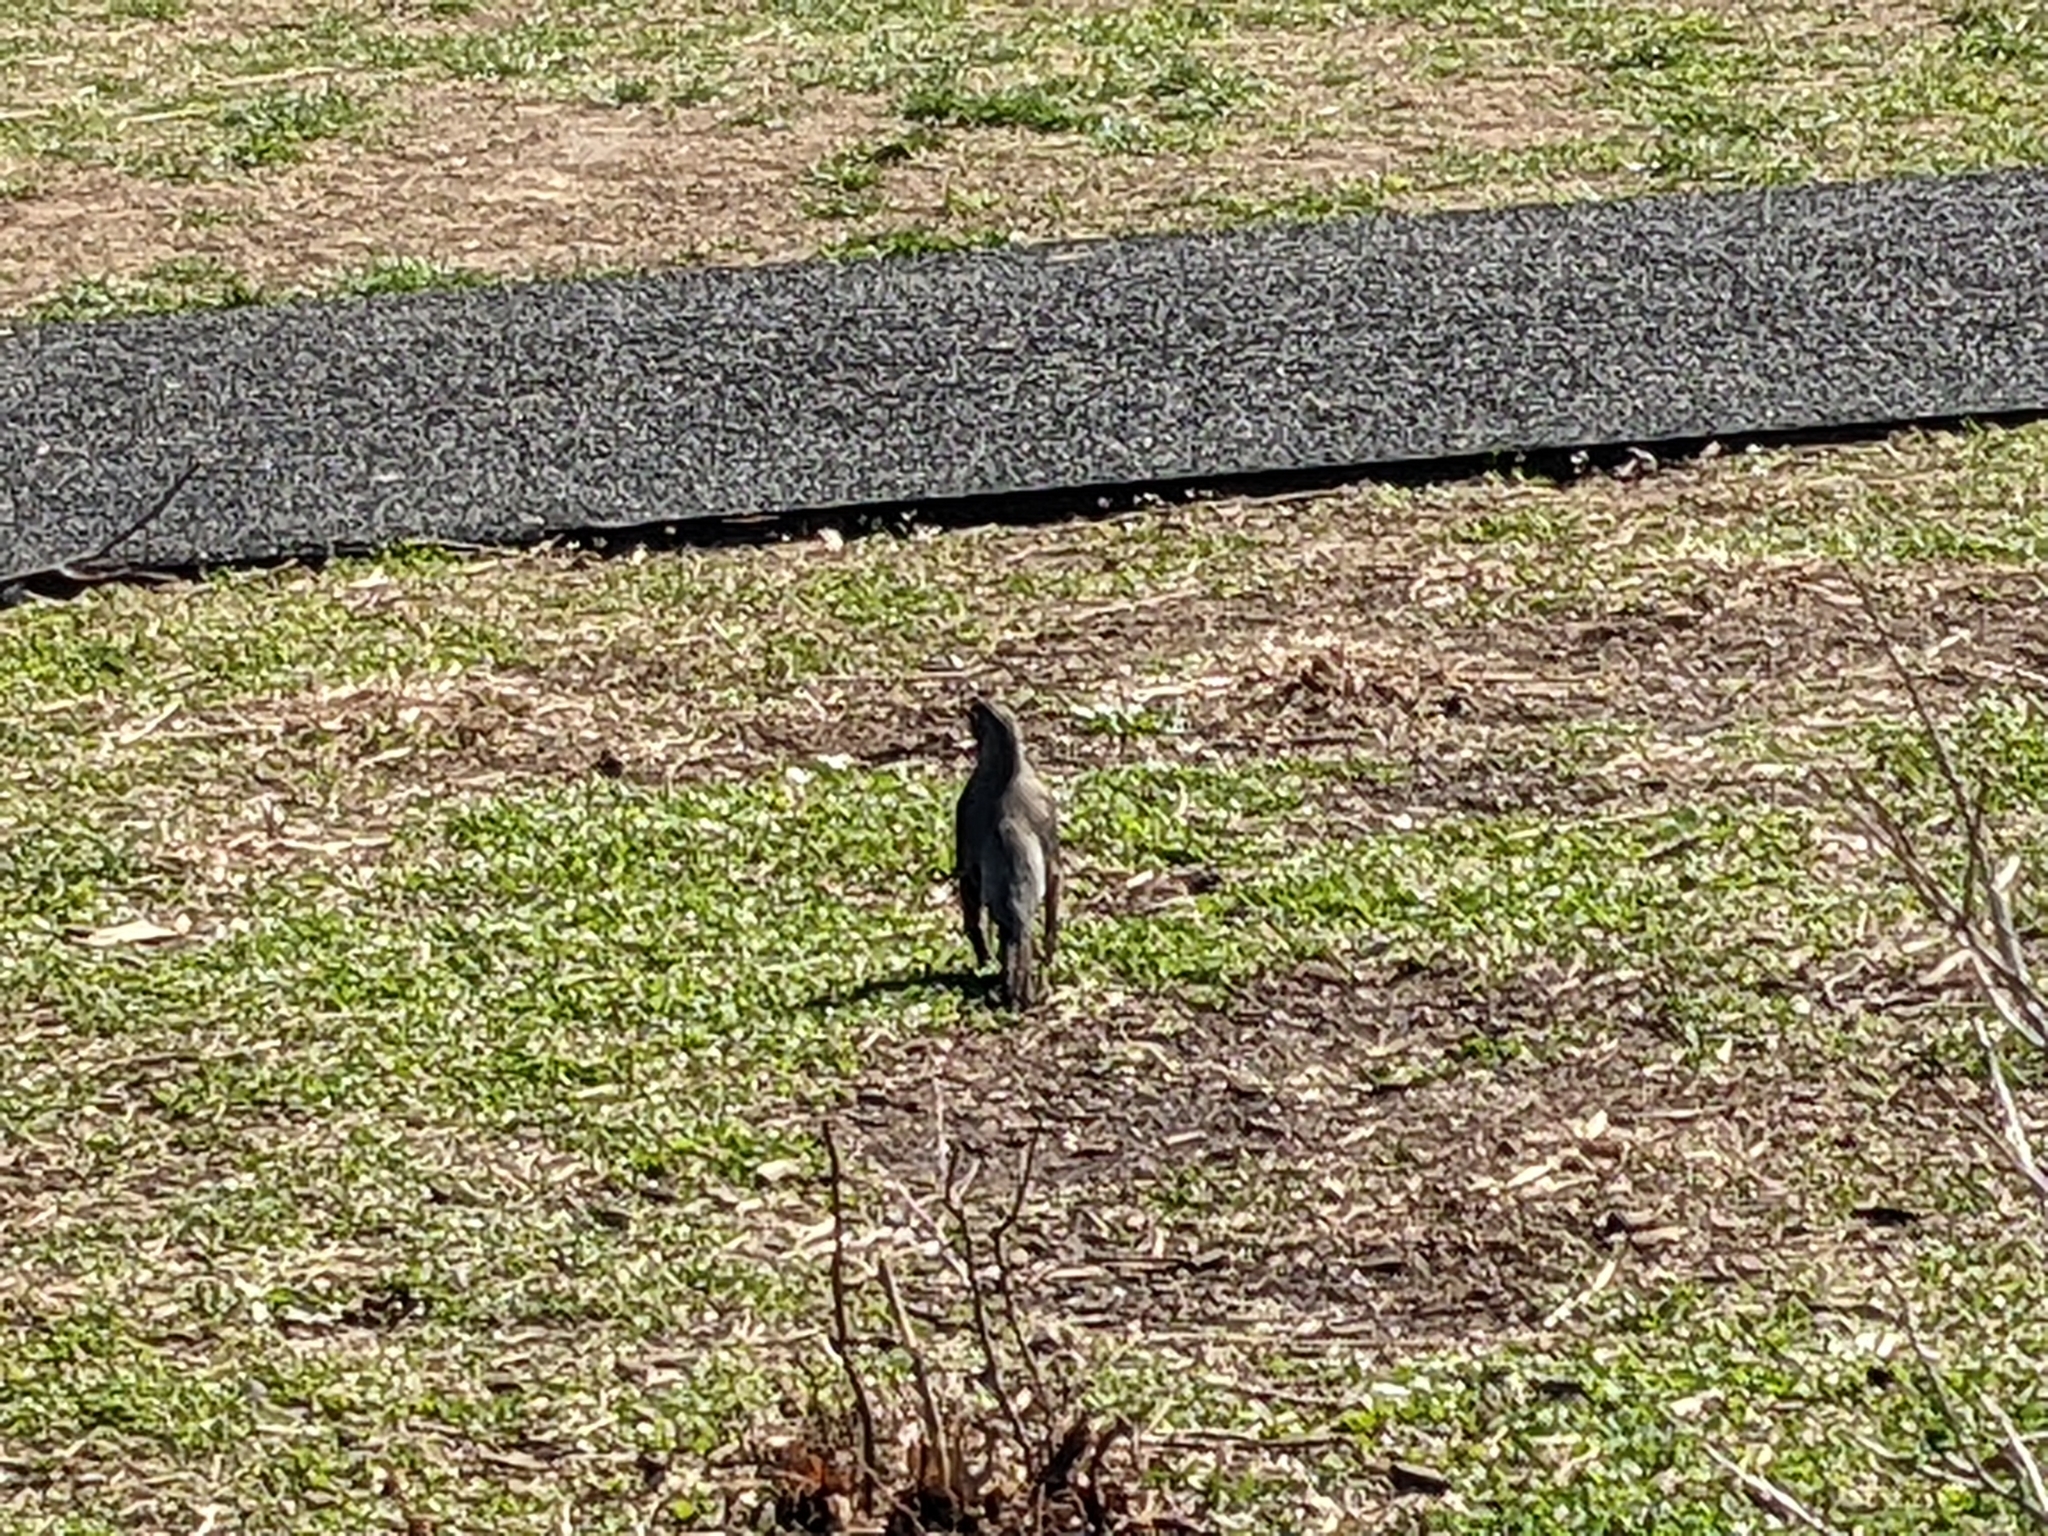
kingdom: Animalia
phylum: Chordata
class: Aves
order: Passeriformes
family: Turdidae
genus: Turdus
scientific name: Turdus migratorius
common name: American robin
